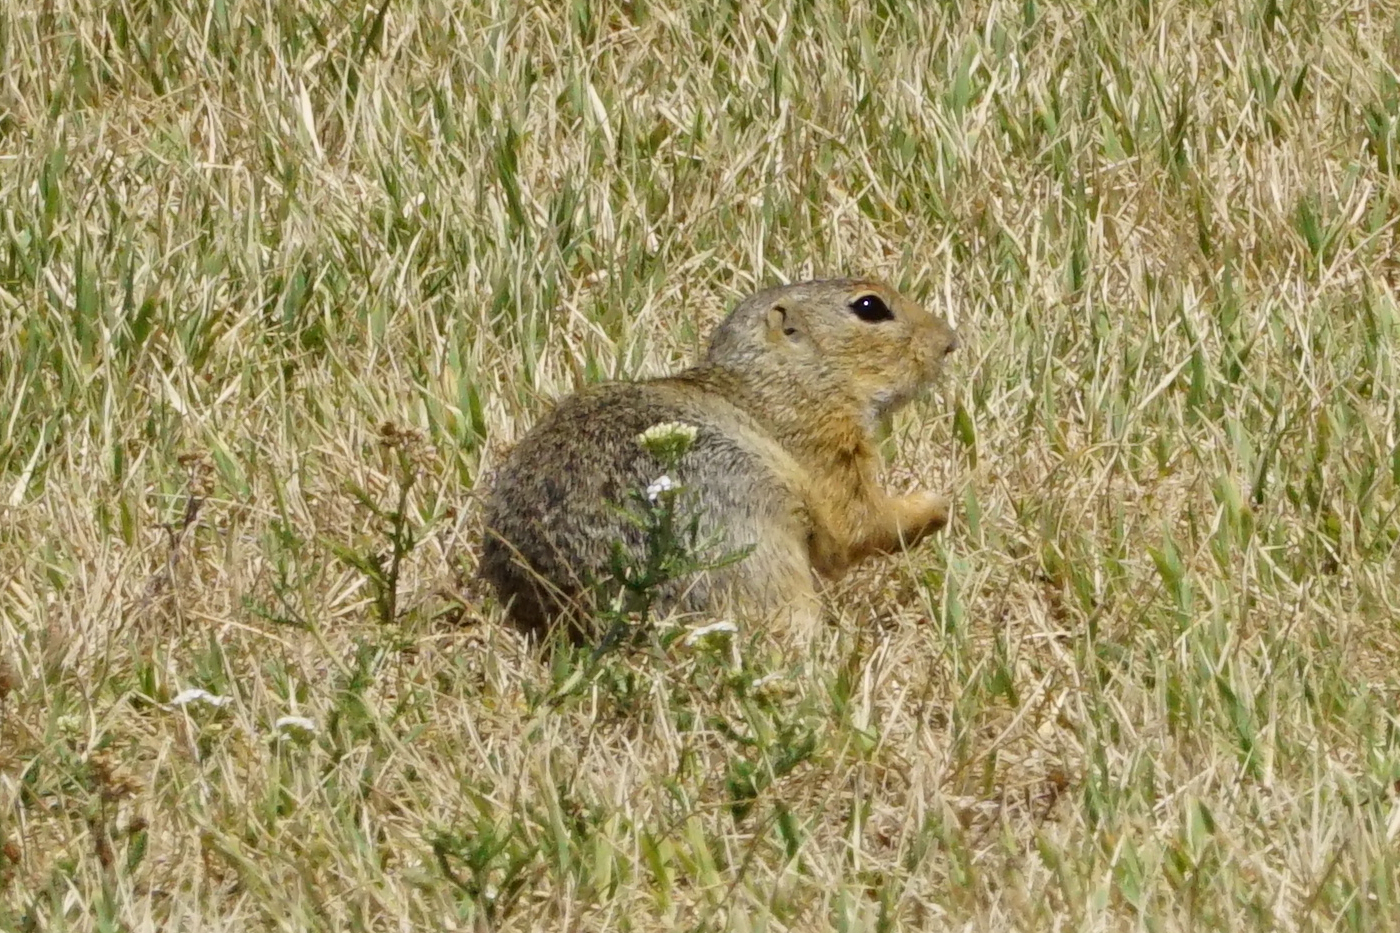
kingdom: Animalia
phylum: Chordata
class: Mammalia
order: Rodentia
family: Sciuridae
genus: Spermophilus
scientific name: Spermophilus citellus
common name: European ground squirrel
